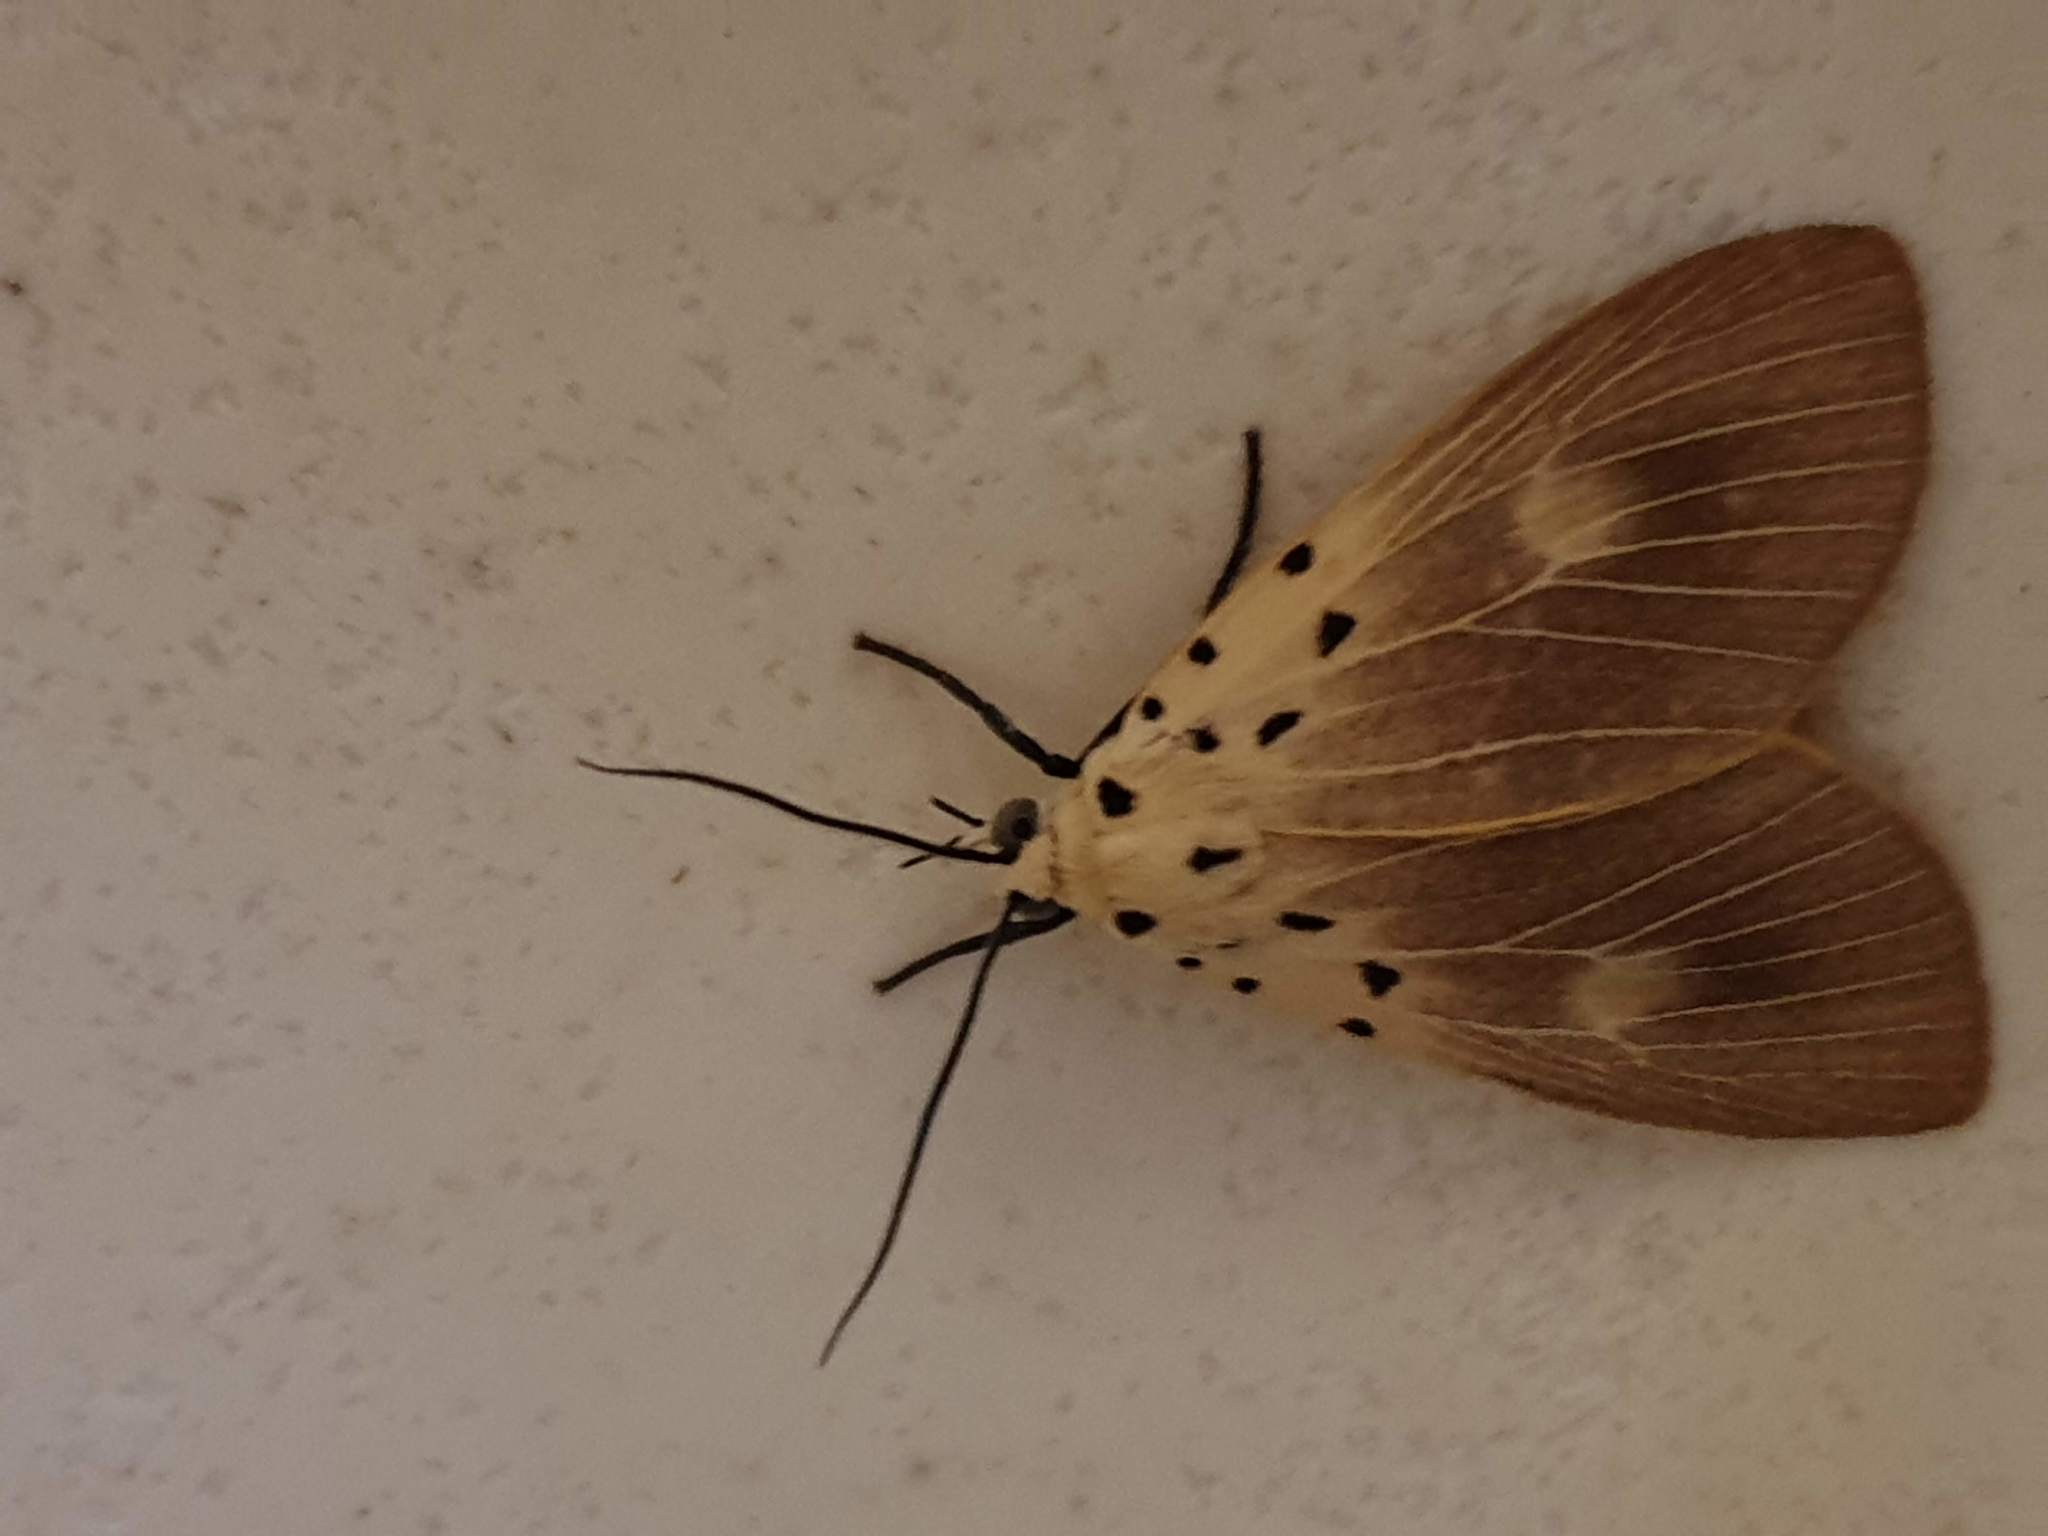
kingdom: Animalia
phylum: Arthropoda
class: Insecta
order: Lepidoptera
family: Erebidae
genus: Asota
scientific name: Asota iodamia
